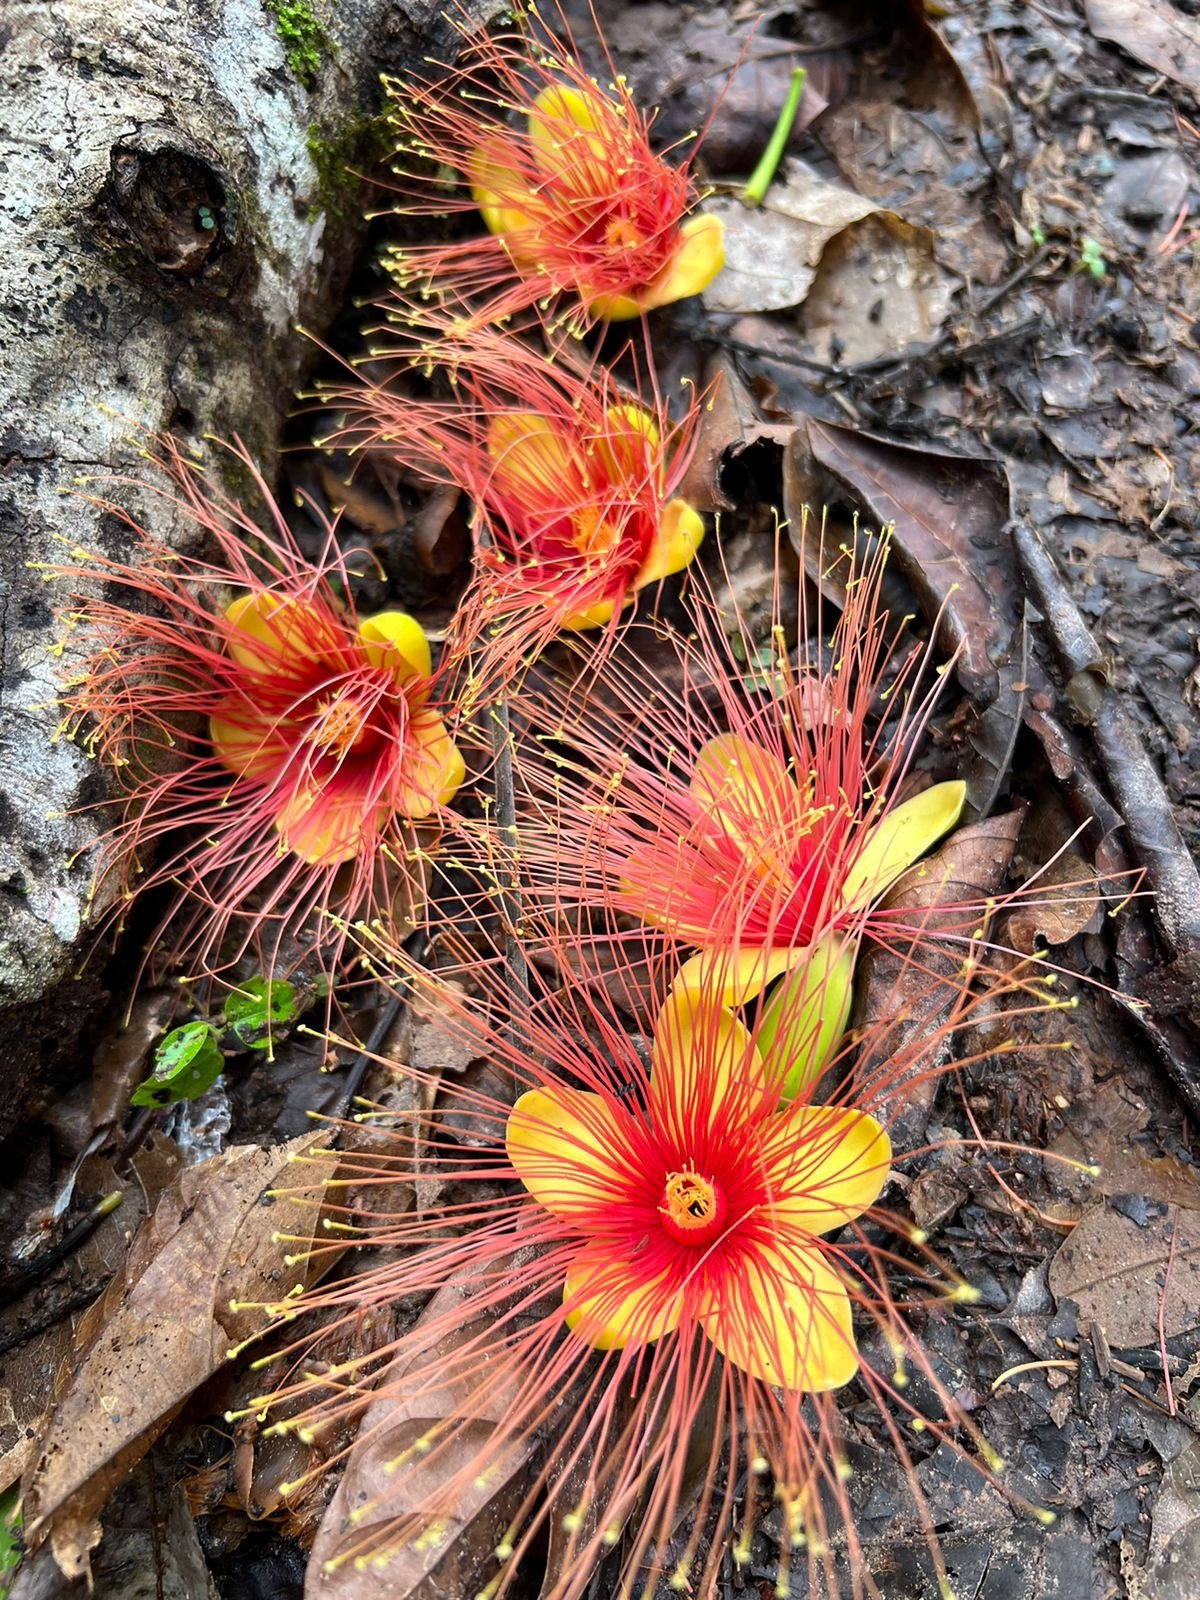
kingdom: Plantae
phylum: Tracheophyta
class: Magnoliopsida
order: Malpighiales
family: Caryocaraceae
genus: Caryocar
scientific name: Caryocar glabrum
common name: Bat's souari
